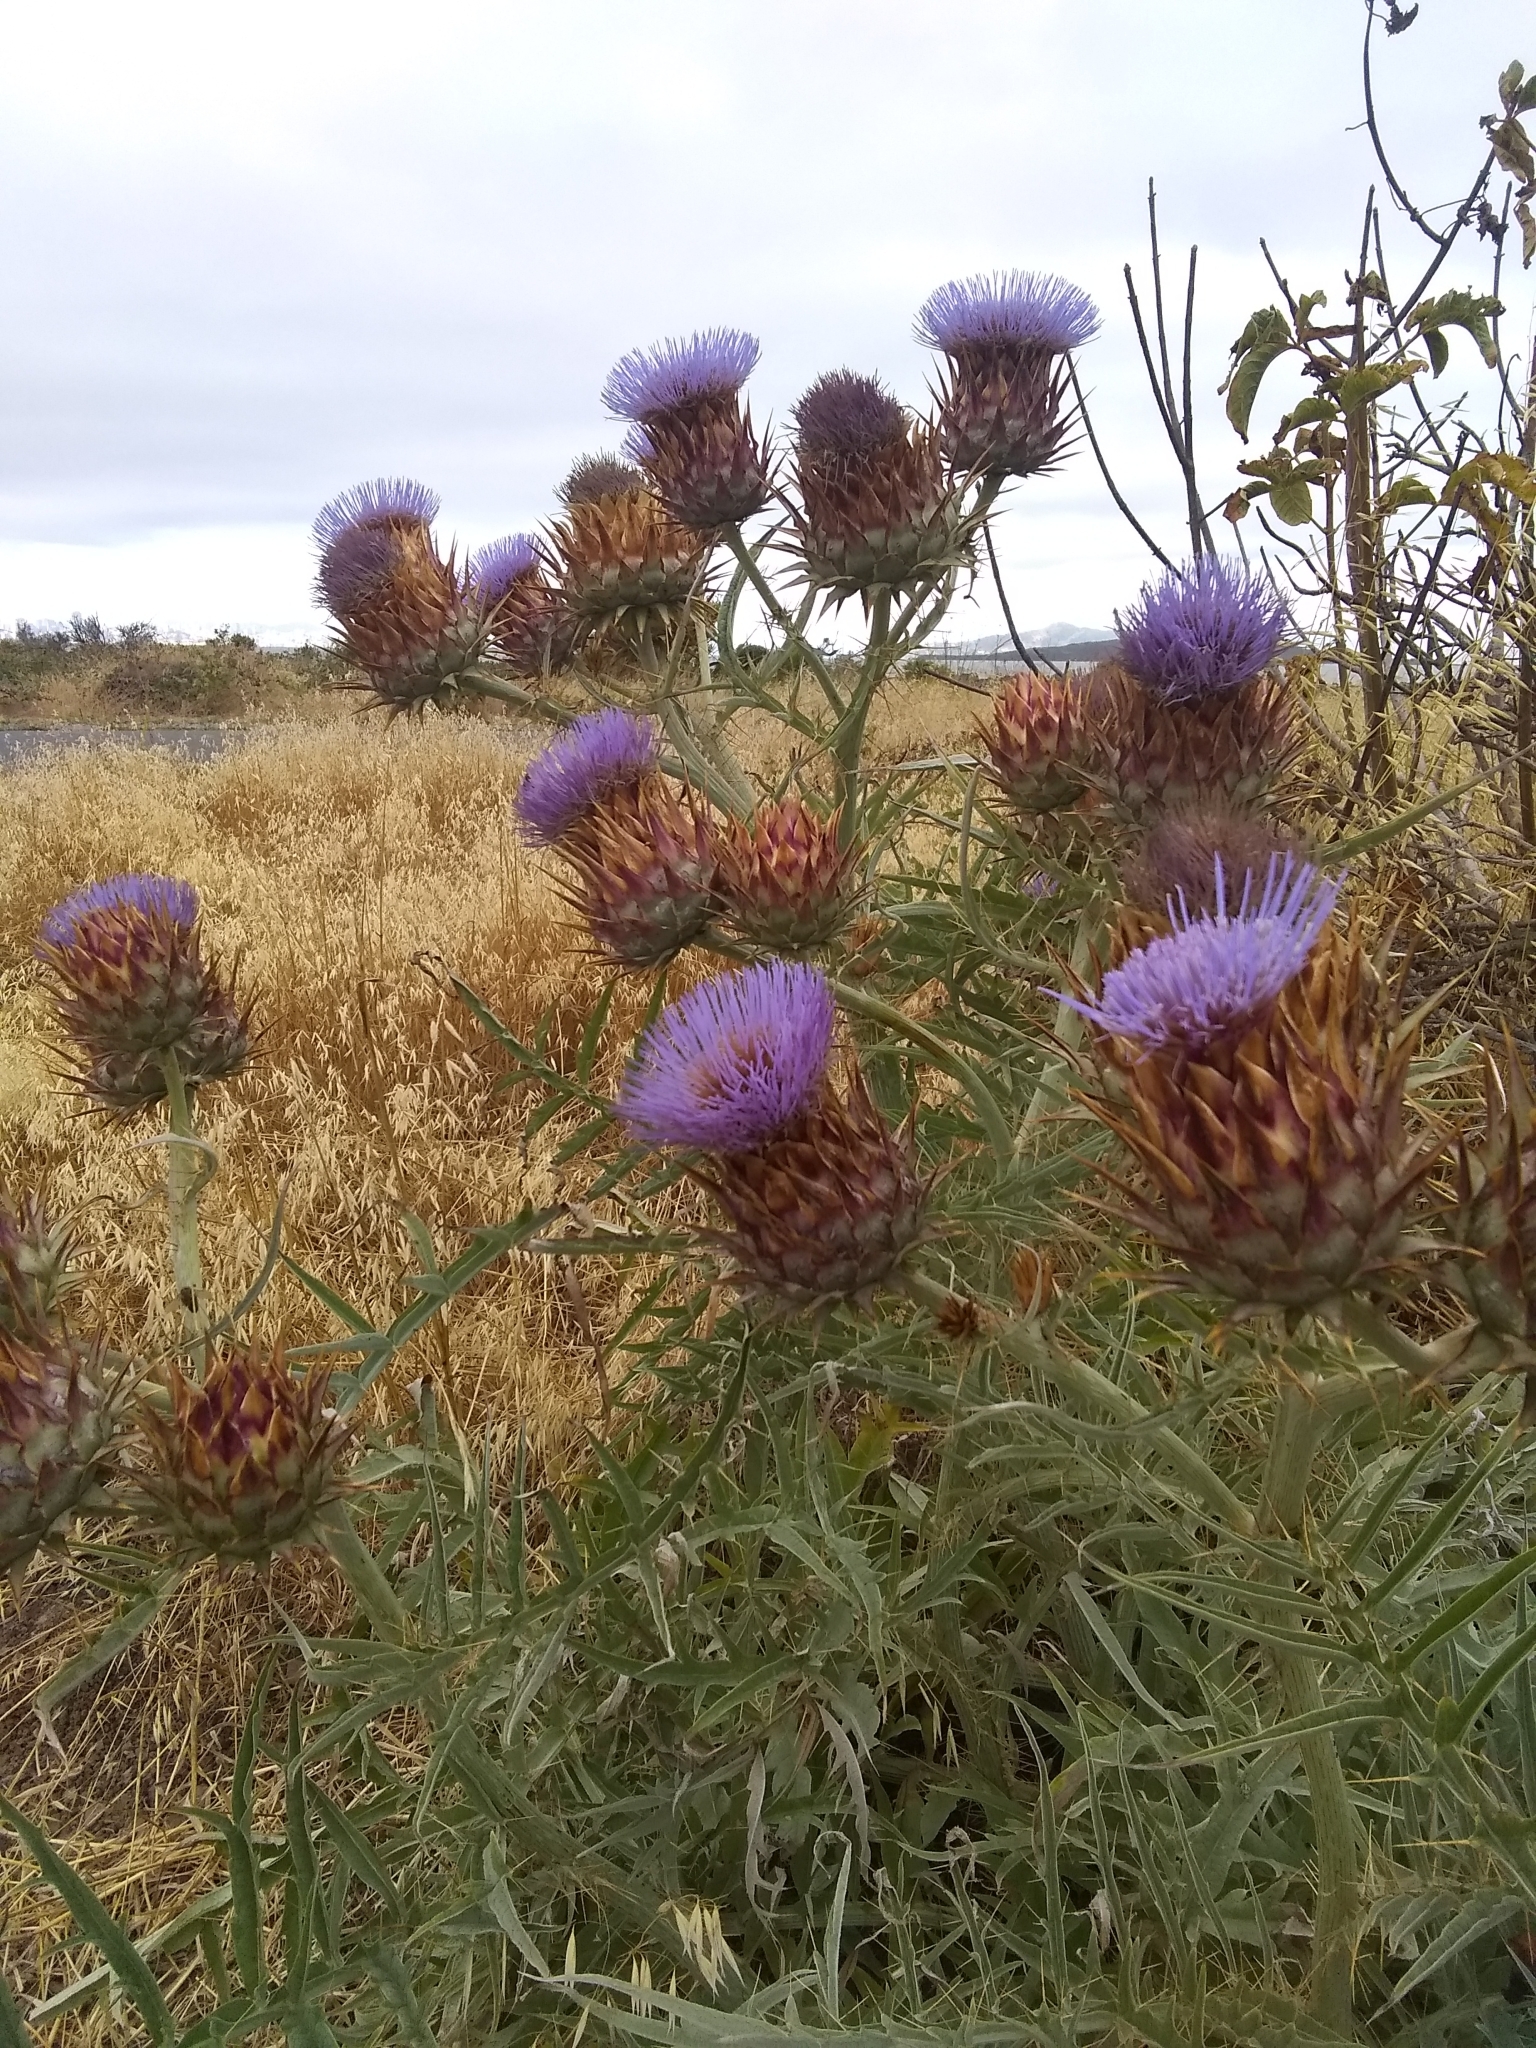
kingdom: Plantae
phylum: Tracheophyta
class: Magnoliopsida
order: Asterales
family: Asteraceae
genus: Cynara
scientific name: Cynara cardunculus
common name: Globe artichoke
